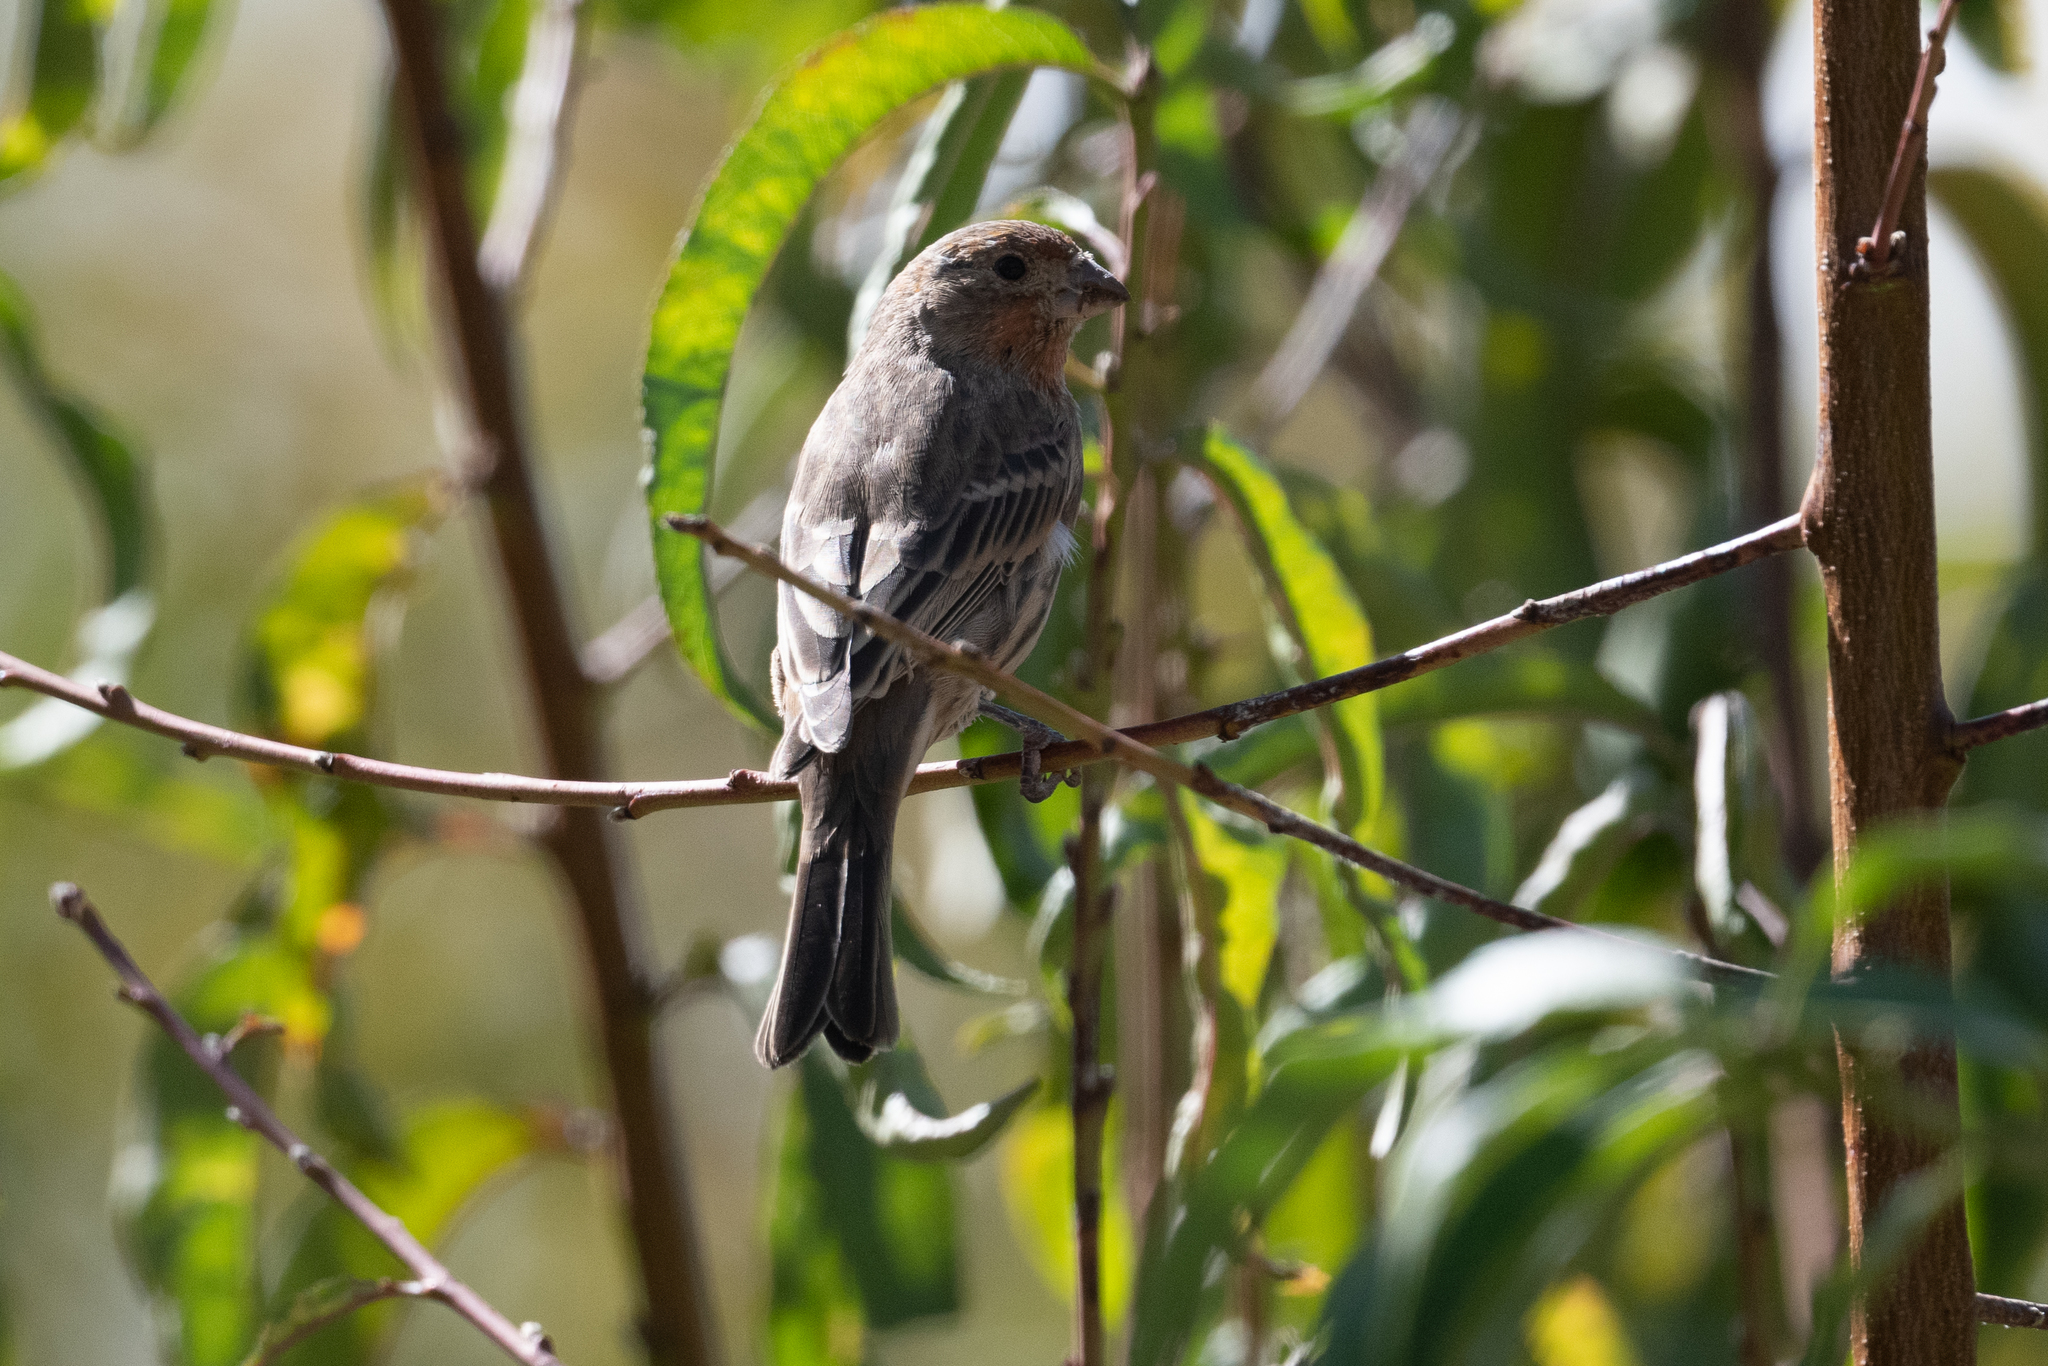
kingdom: Animalia
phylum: Chordata
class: Aves
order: Passeriformes
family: Fringillidae
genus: Haemorhous
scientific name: Haemorhous mexicanus
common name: House finch
